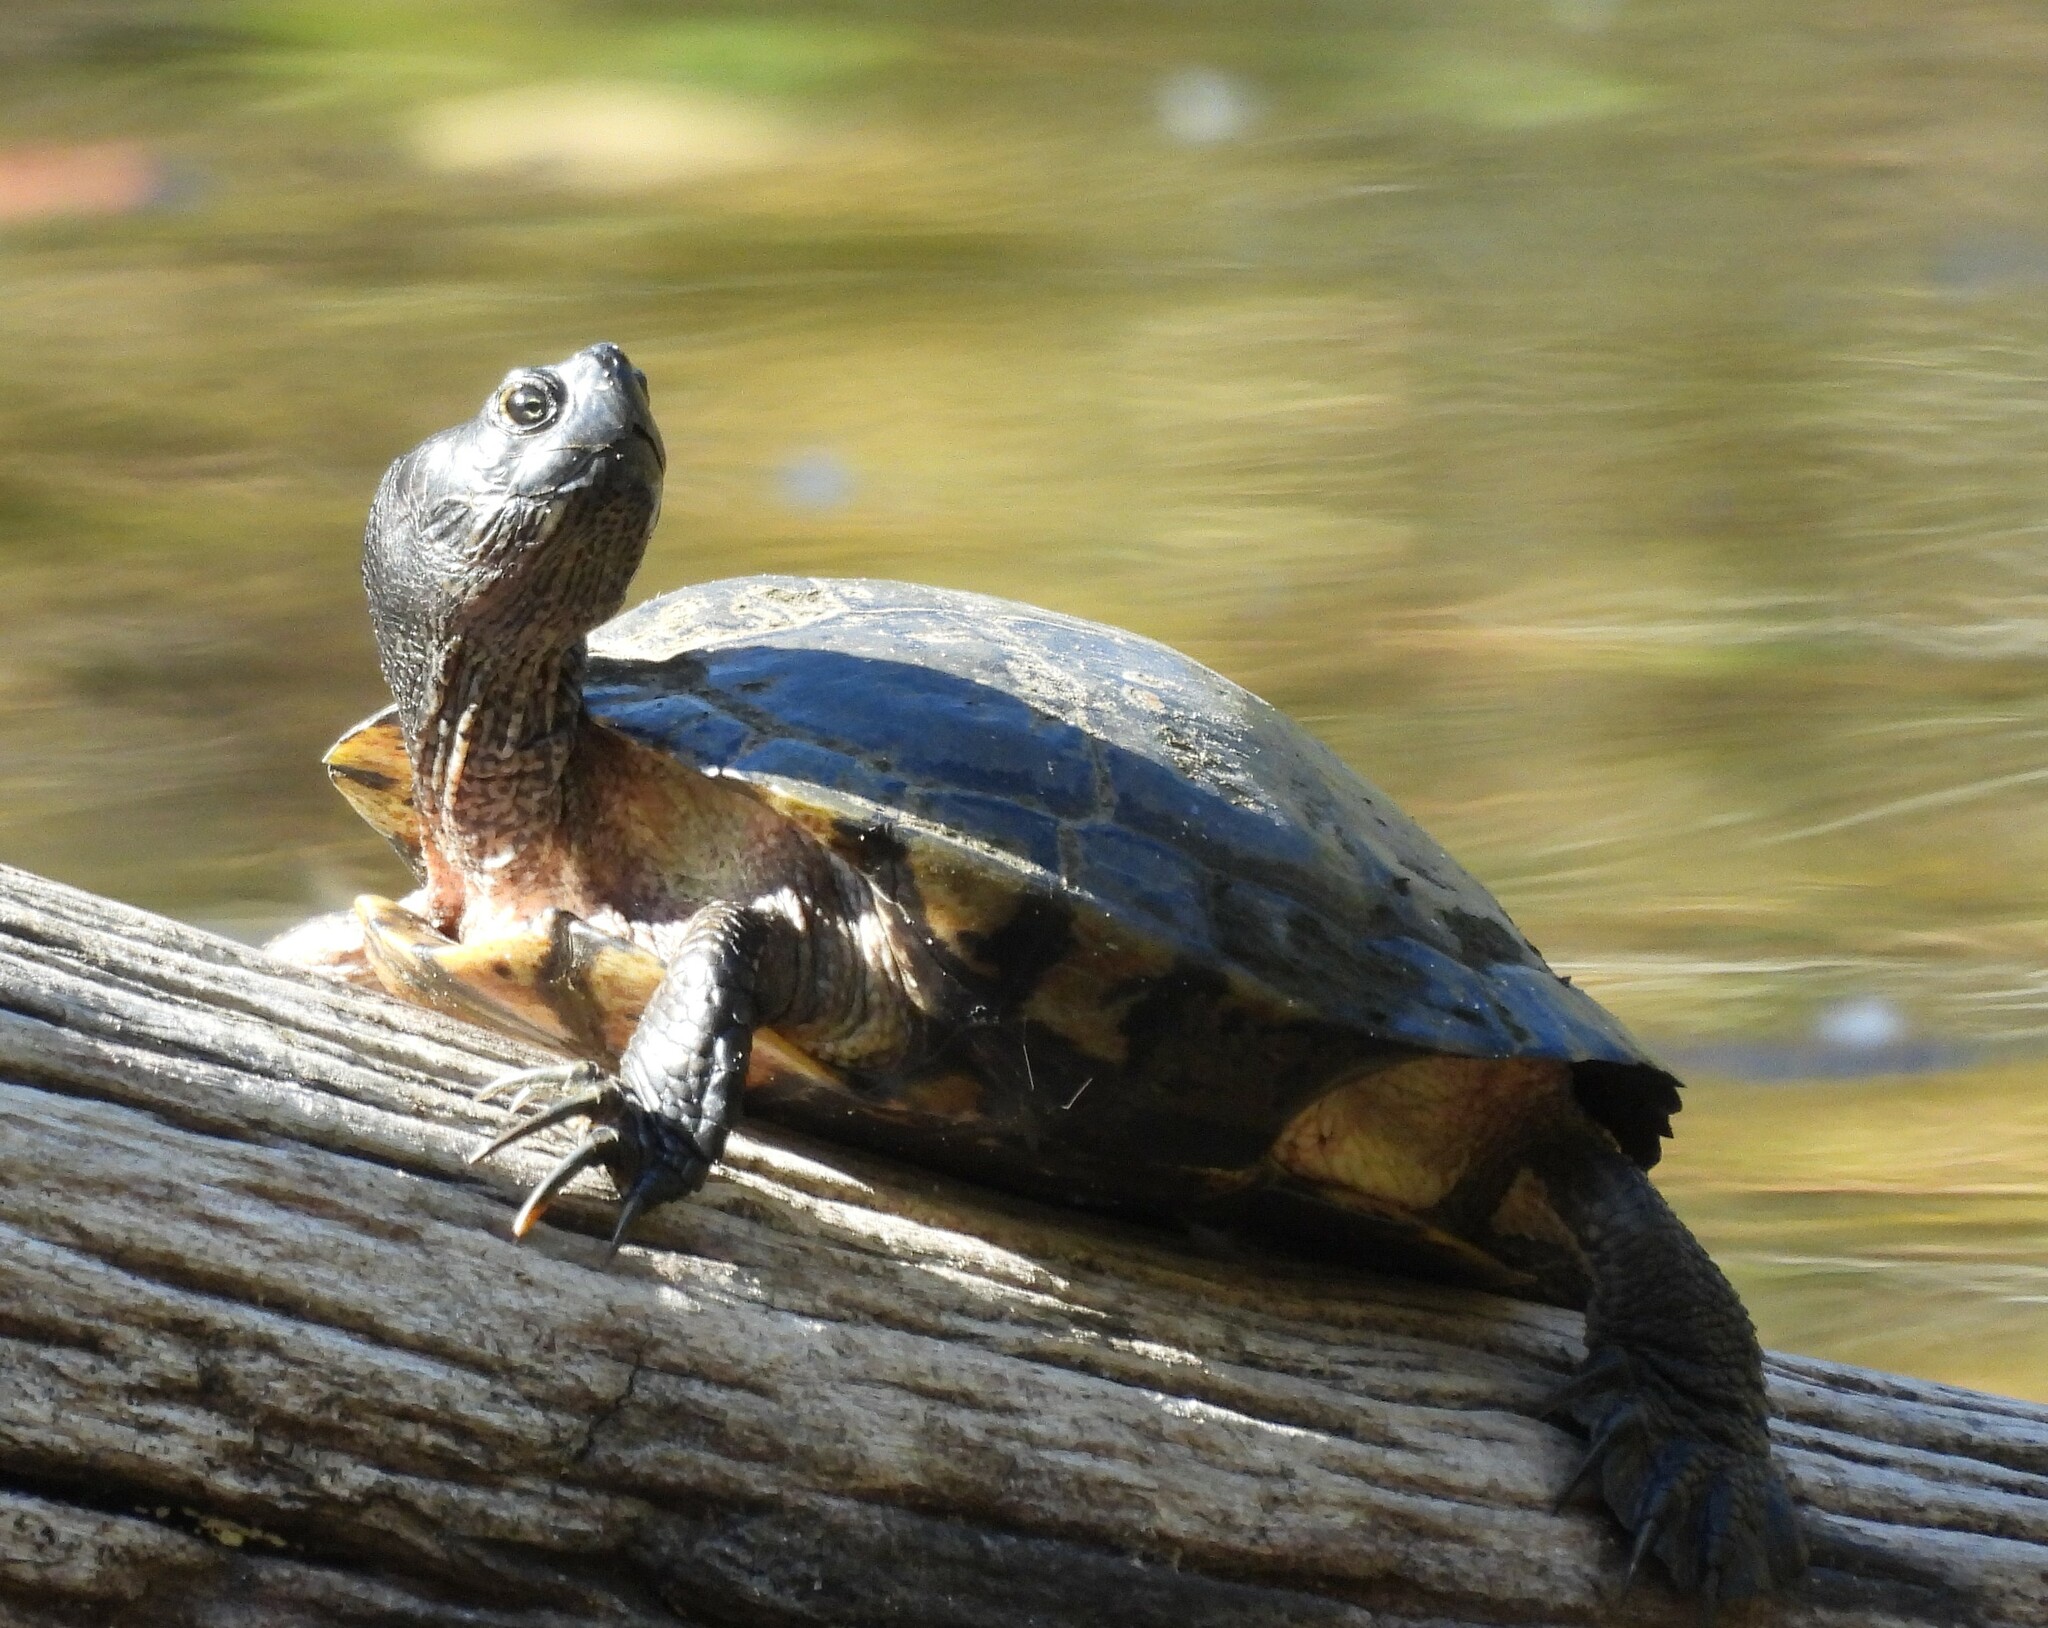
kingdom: Animalia
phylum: Chordata
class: Testudines
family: Emydidae
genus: Trachemys
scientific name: Trachemys scripta
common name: Slider
